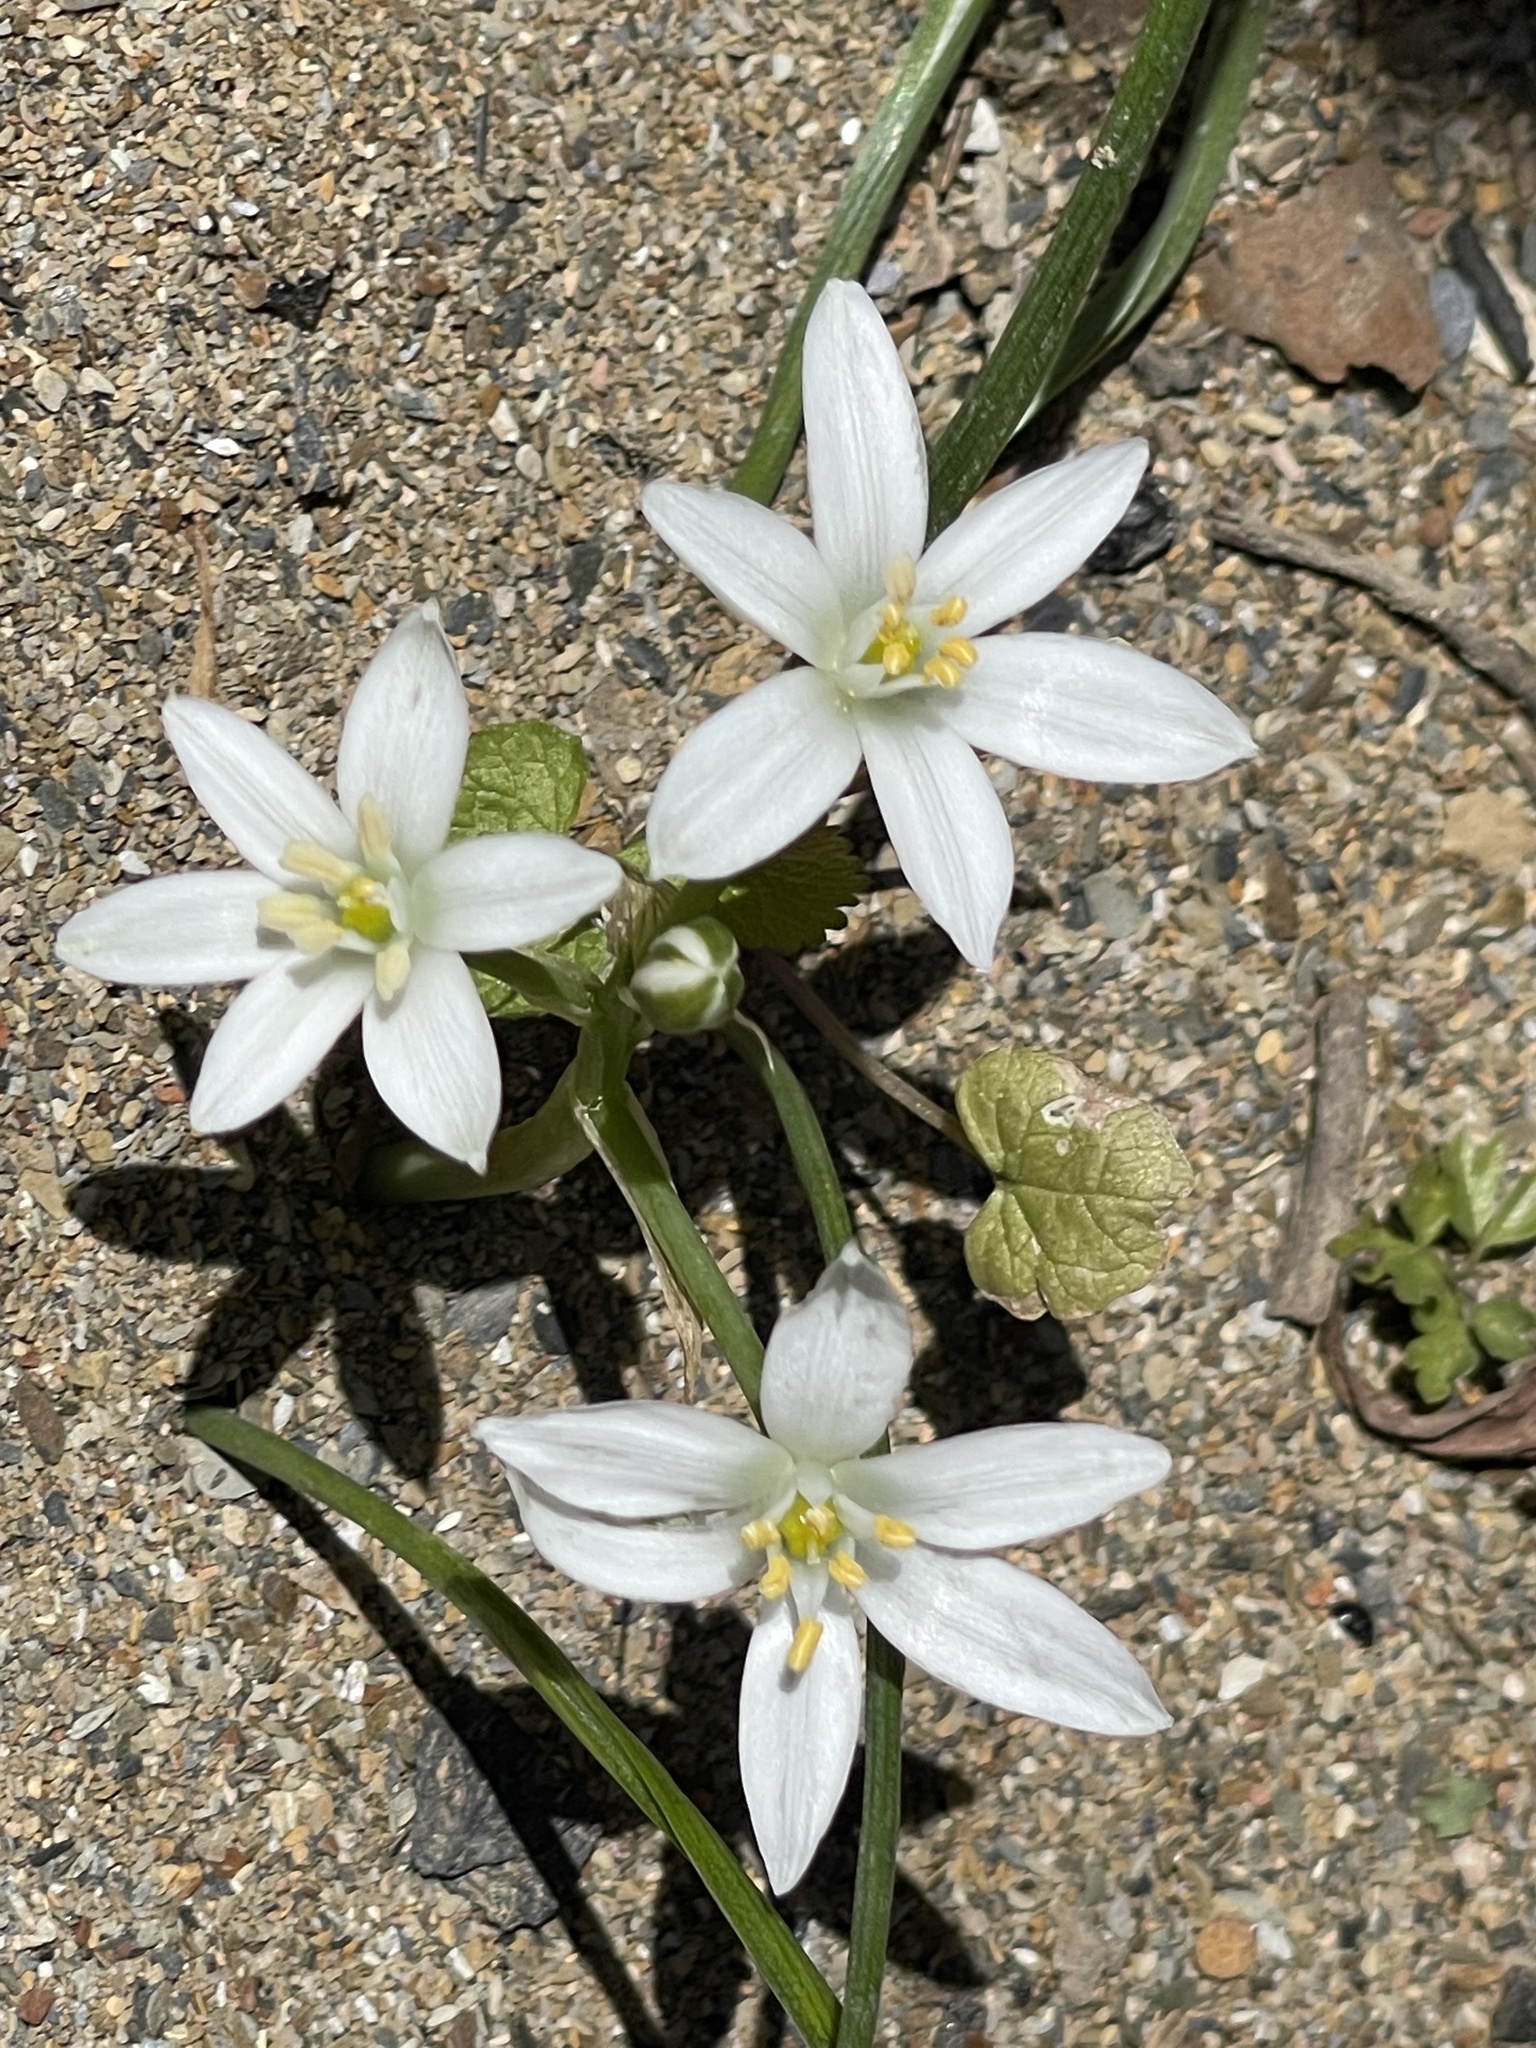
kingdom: Plantae
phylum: Tracheophyta
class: Liliopsida
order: Asparagales
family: Asparagaceae
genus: Ornithogalum
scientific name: Ornithogalum umbellatum
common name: Garden star-of-bethlehem
